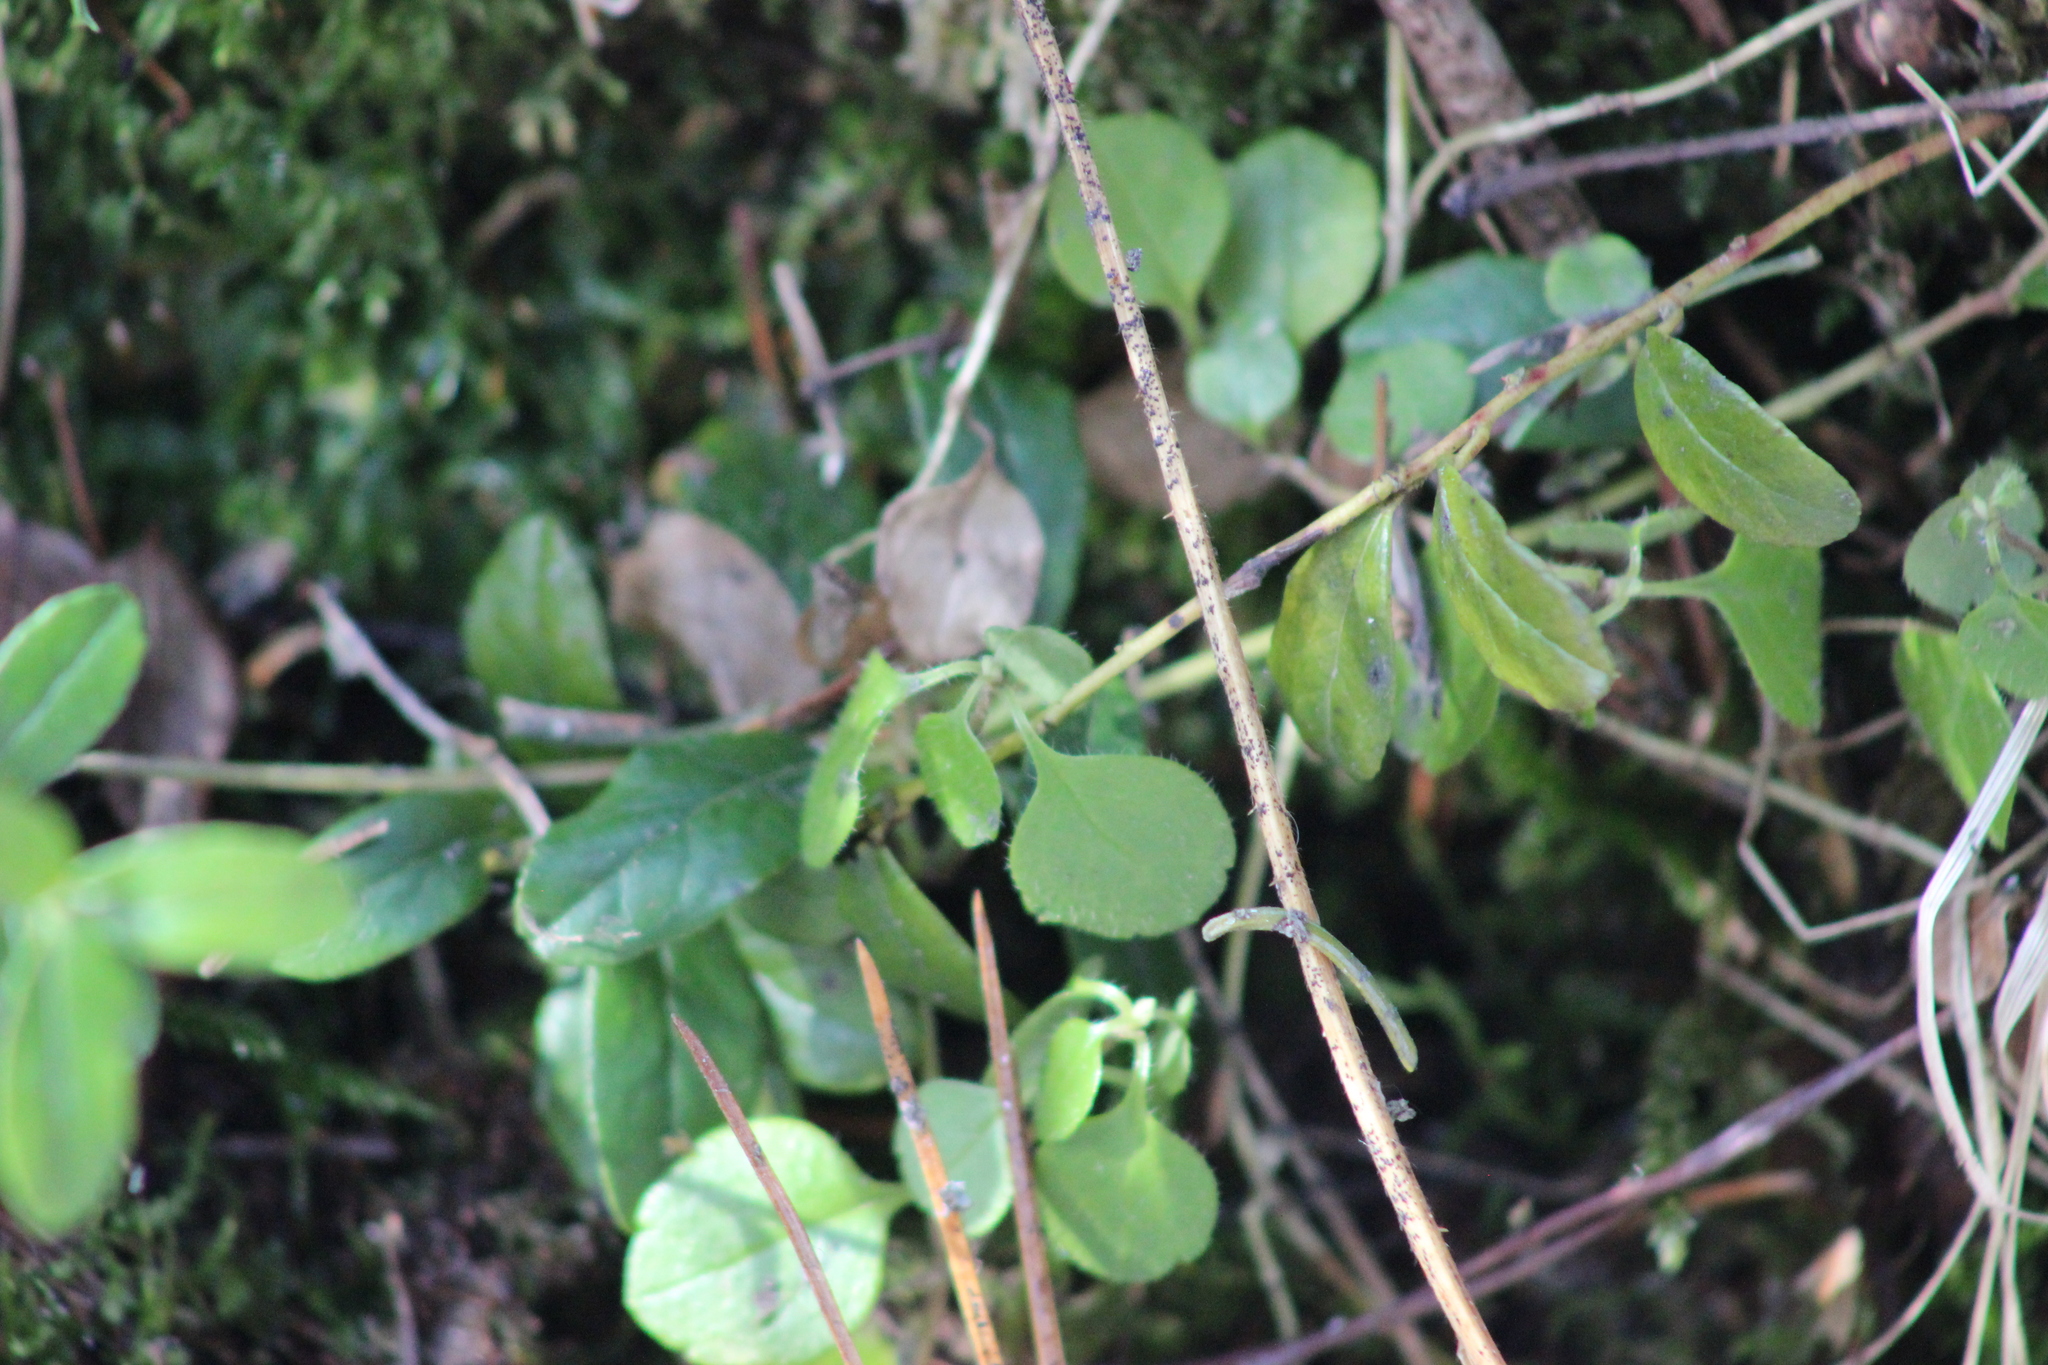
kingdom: Plantae
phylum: Tracheophyta
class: Magnoliopsida
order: Dipsacales
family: Caprifoliaceae
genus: Linnaea
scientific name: Linnaea borealis
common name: Twinflower
